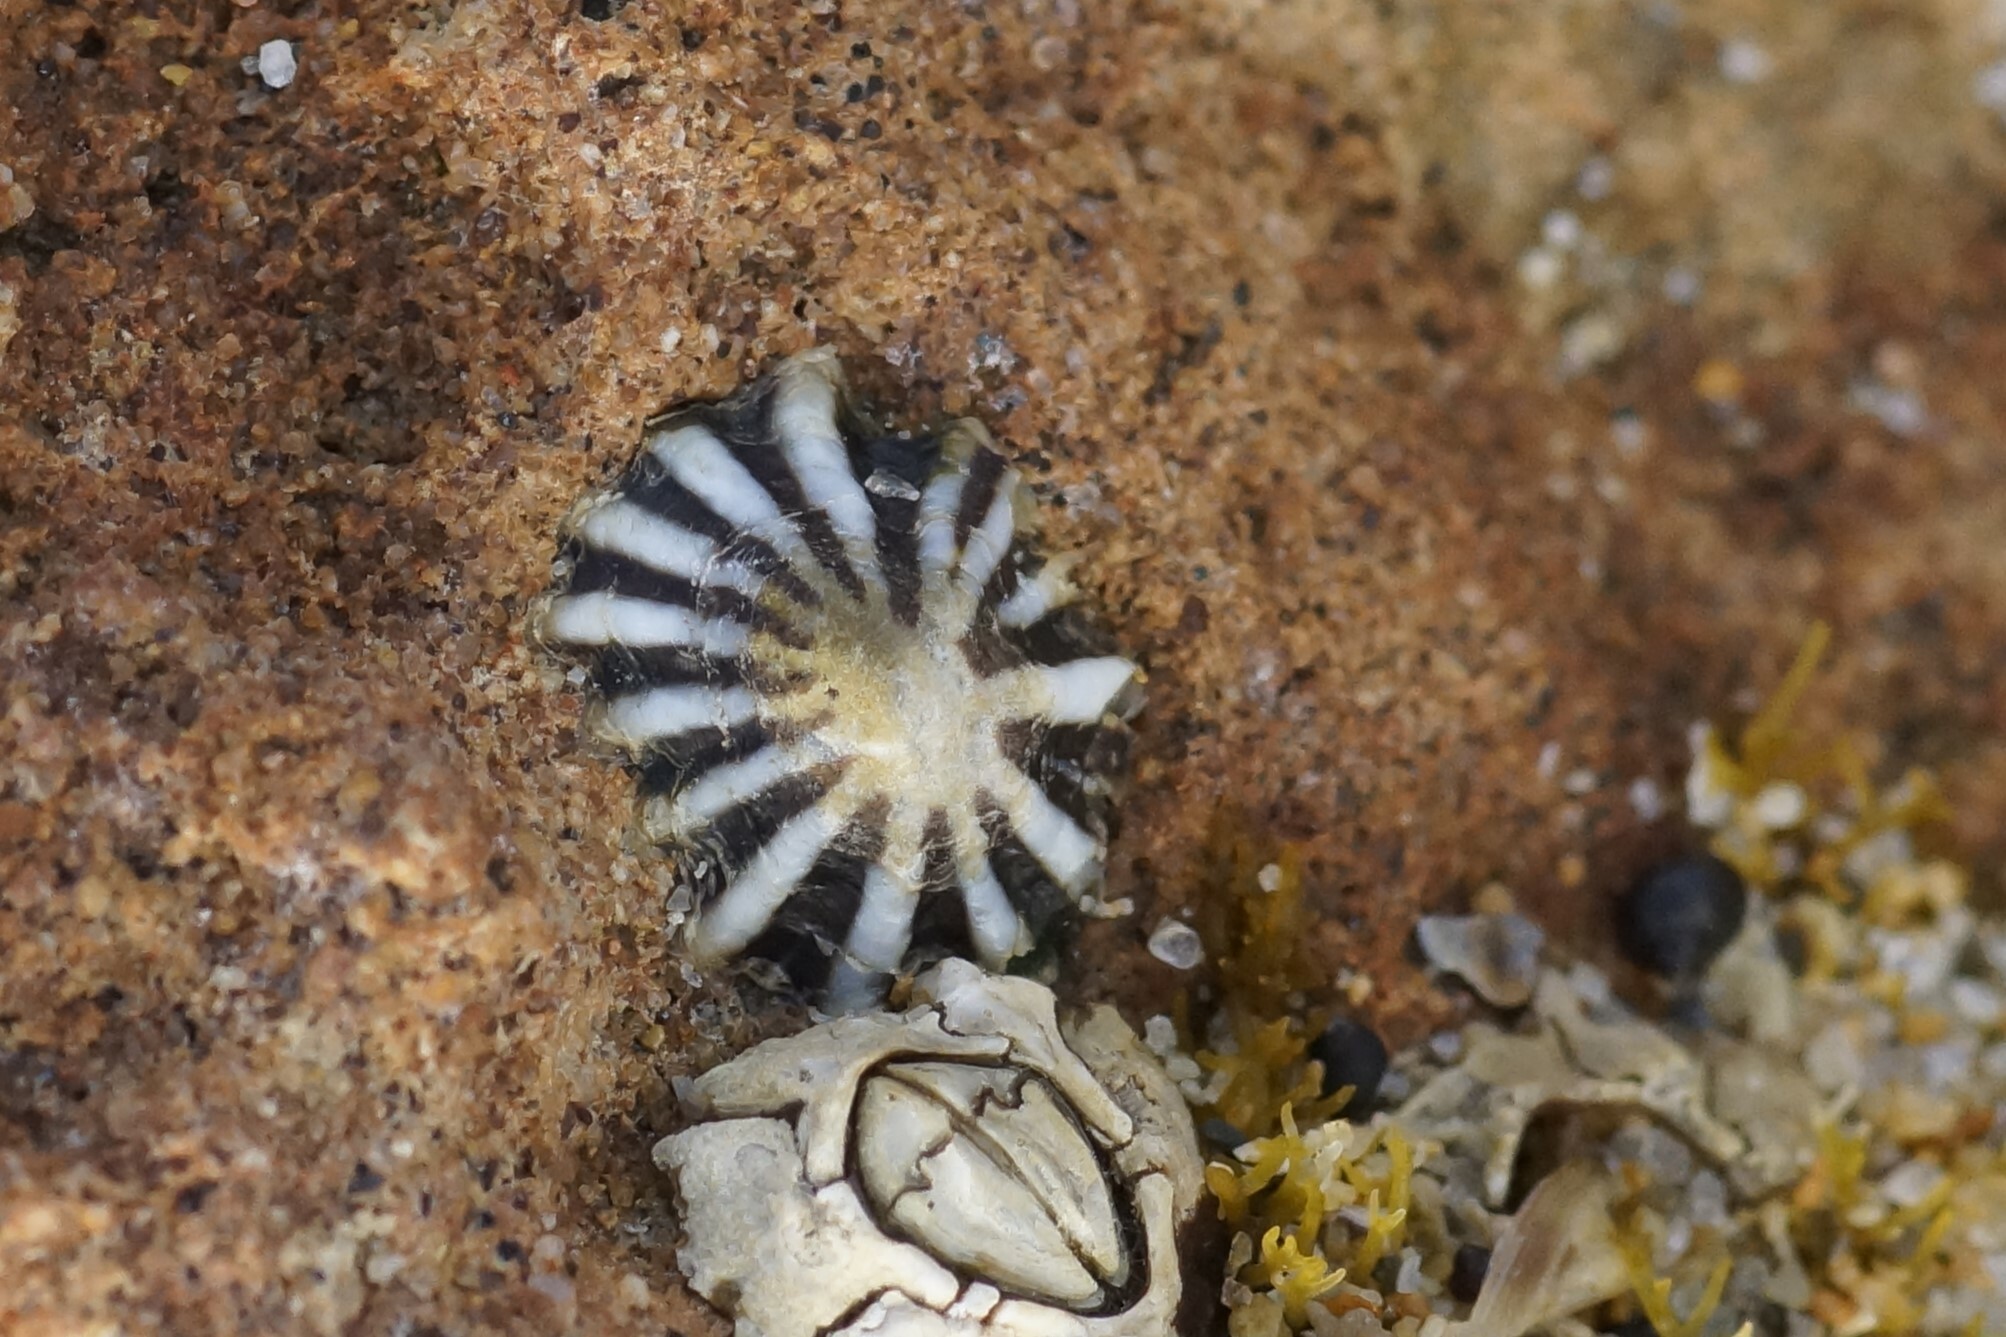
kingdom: Animalia
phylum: Mollusca
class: Gastropoda
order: Siphonariida
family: Siphonariidae
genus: Siphonaria
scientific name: Siphonaria diemenensis
